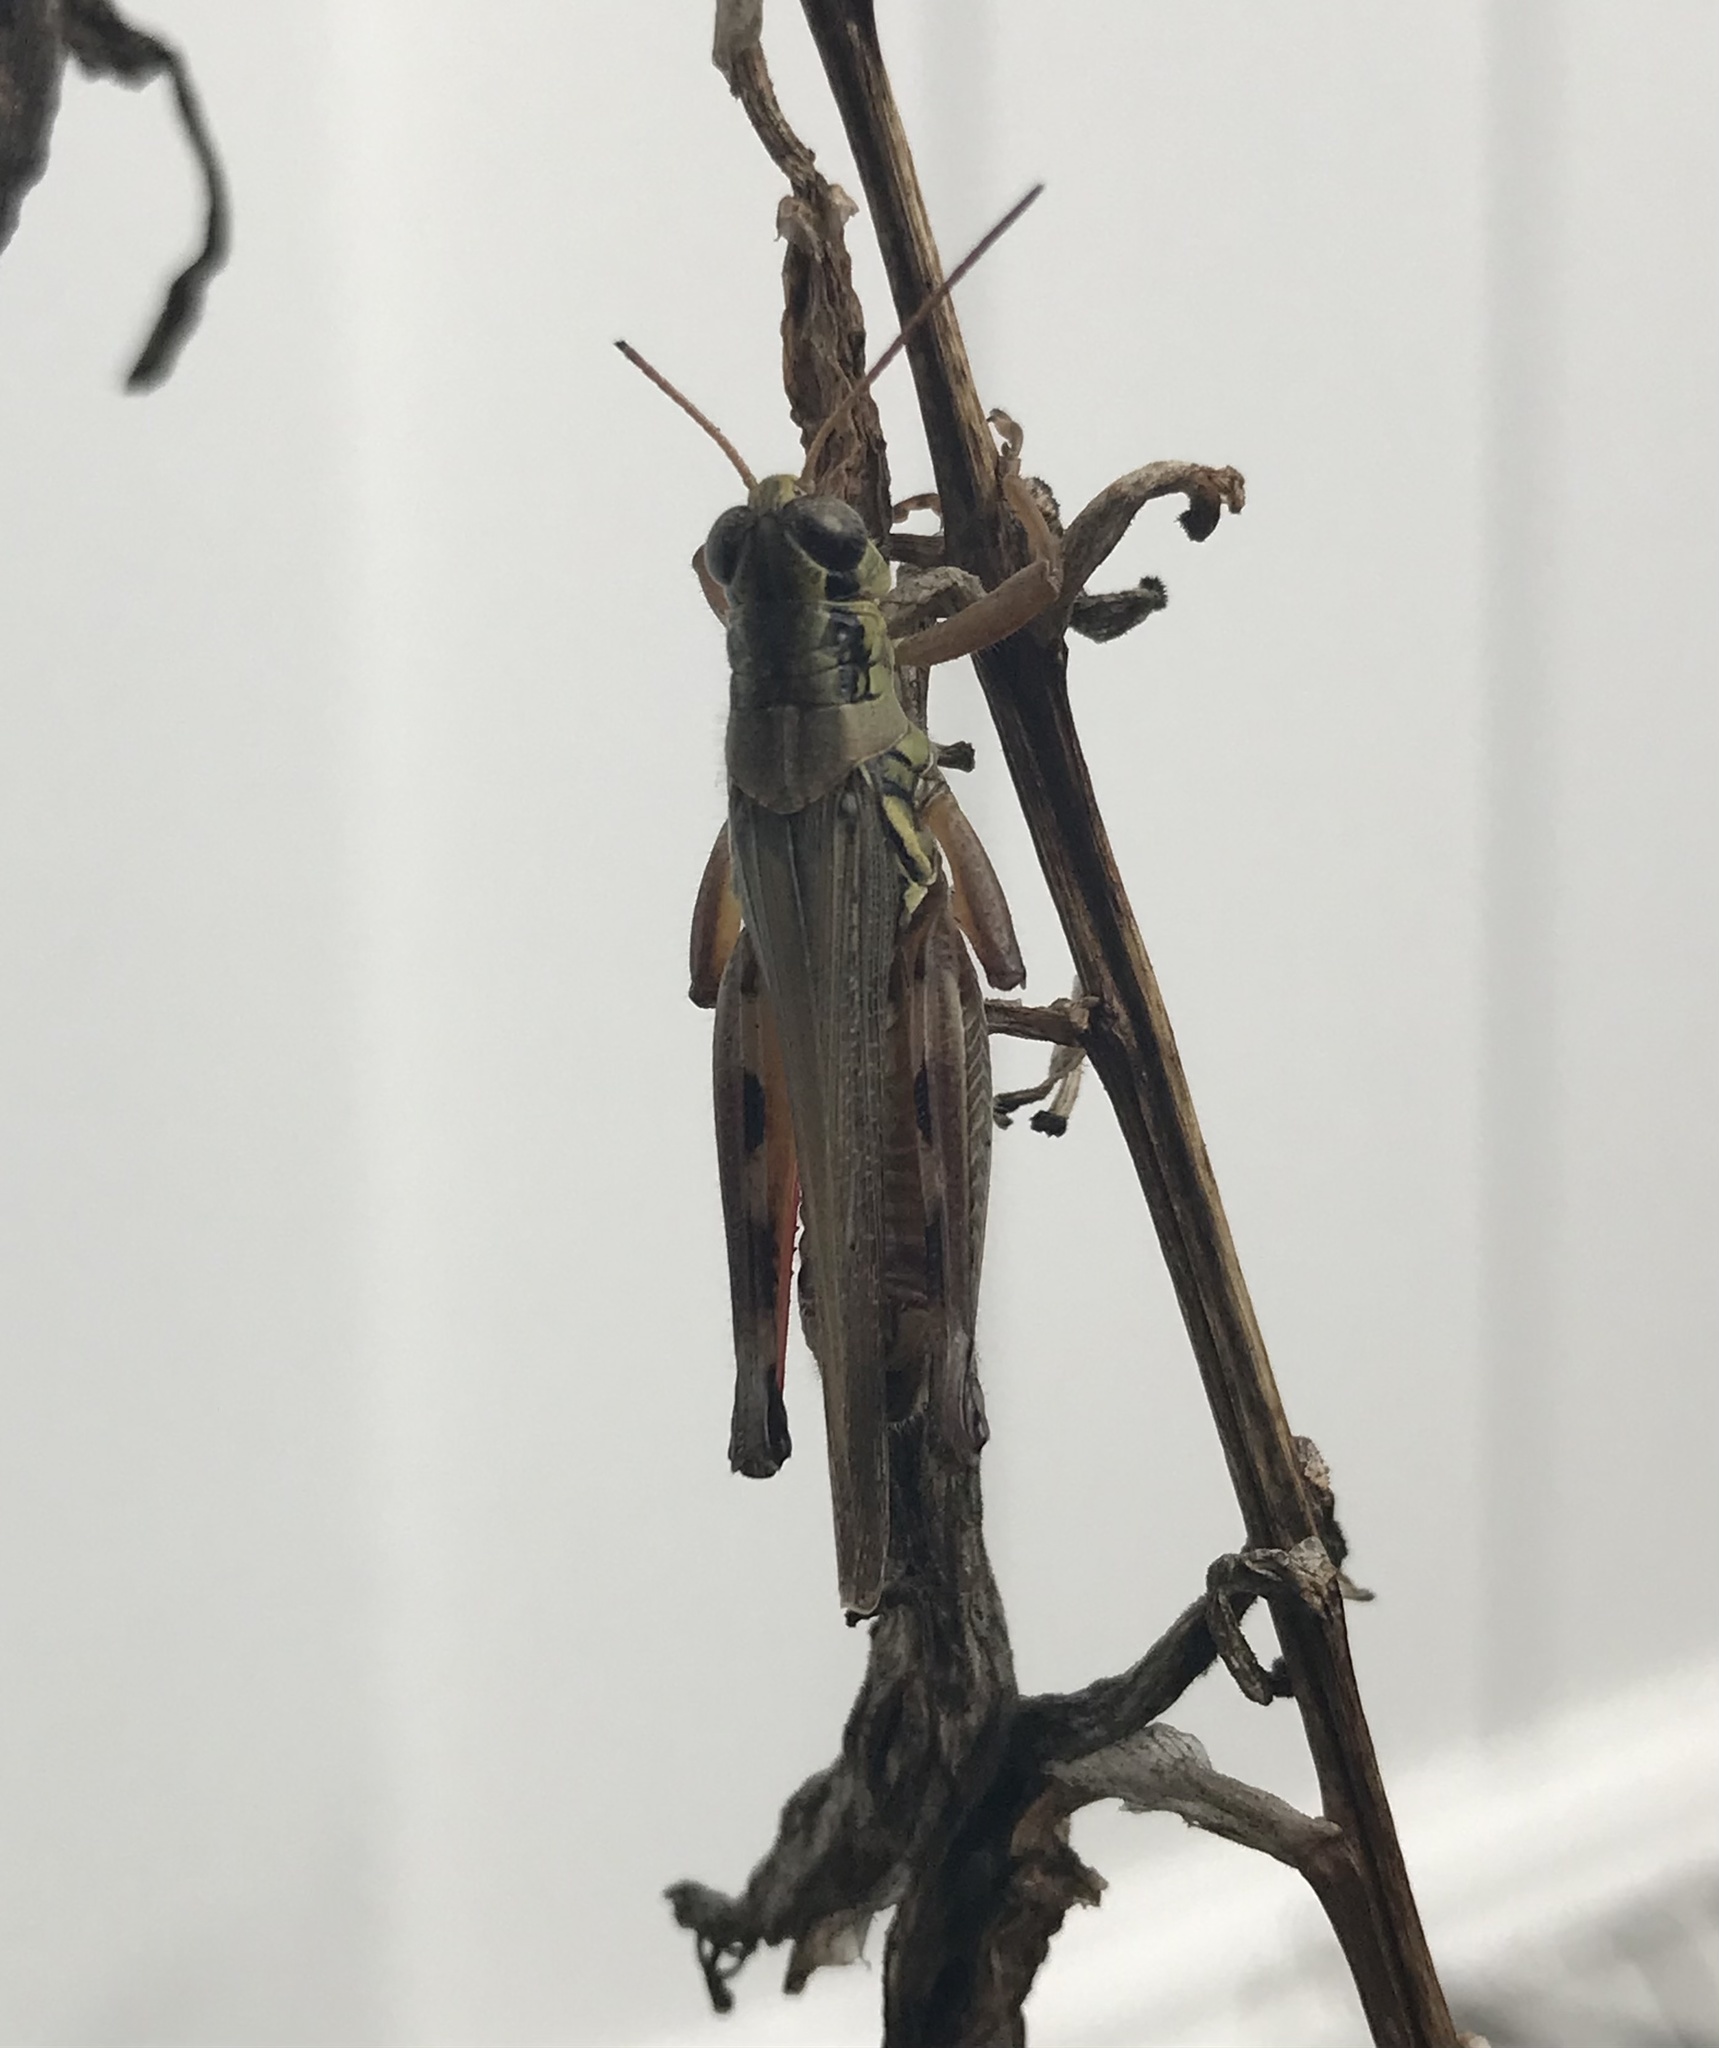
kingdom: Animalia
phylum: Arthropoda
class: Insecta
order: Orthoptera
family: Acrididae
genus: Melanoplus
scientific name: Melanoplus femurrubrum
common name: Red-legged grasshopper
